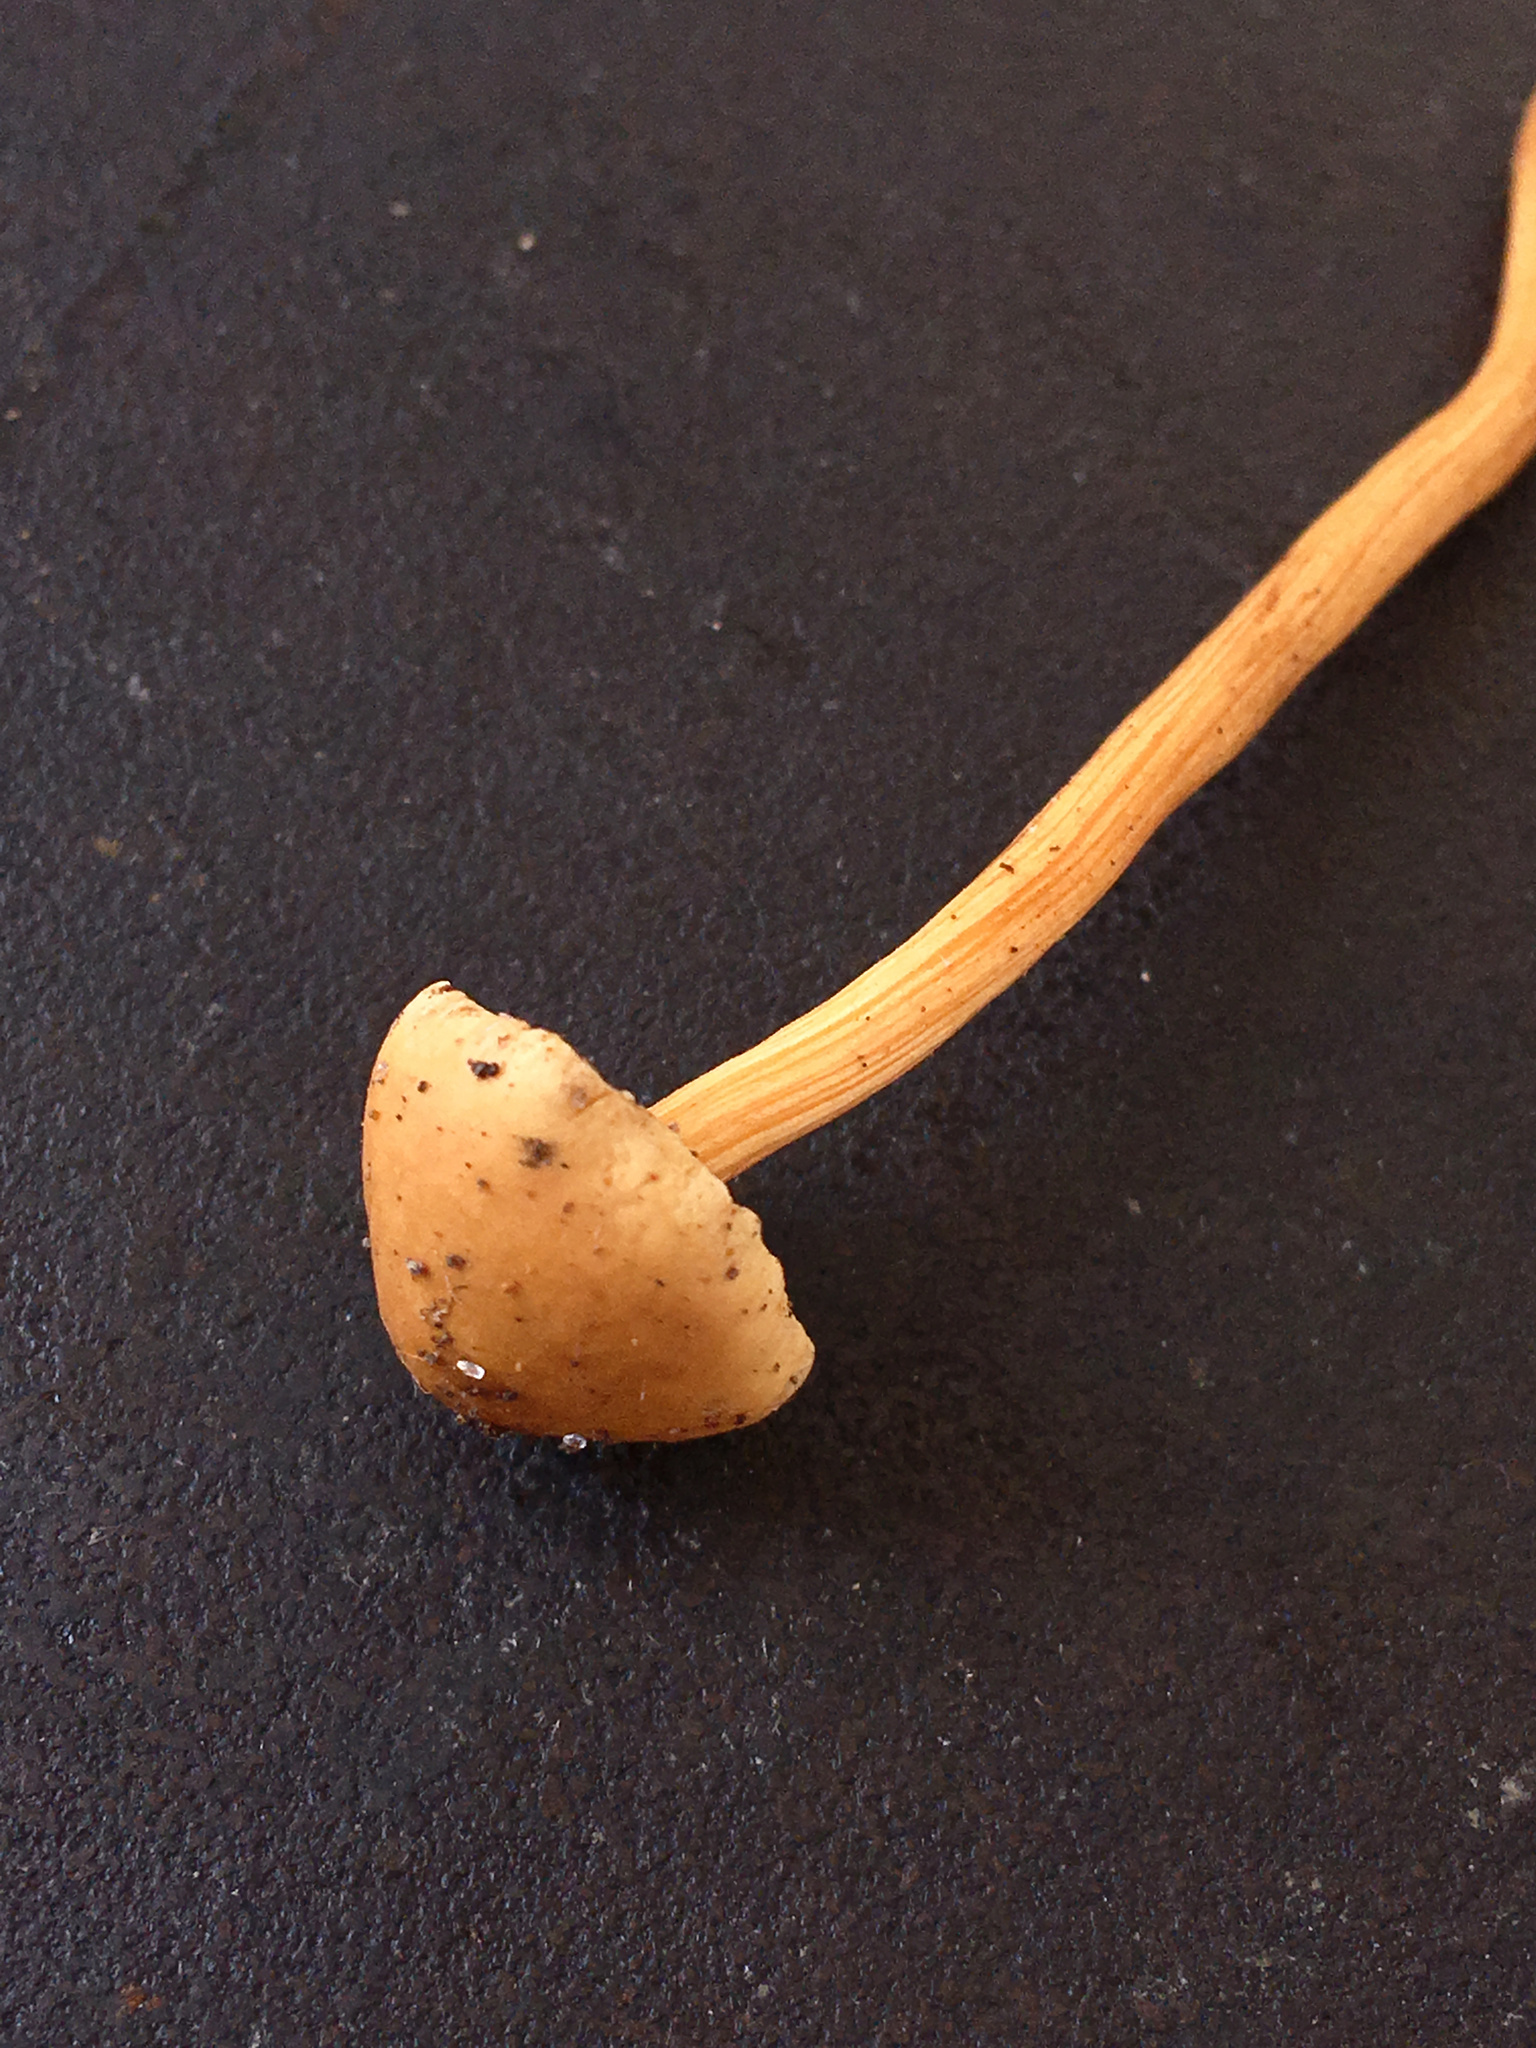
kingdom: Fungi
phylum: Basidiomycota
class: Agaricomycetes
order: Agaricales
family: Strophariaceae
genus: Agrocybe
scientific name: Agrocybe pediades
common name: Common fieldcap
